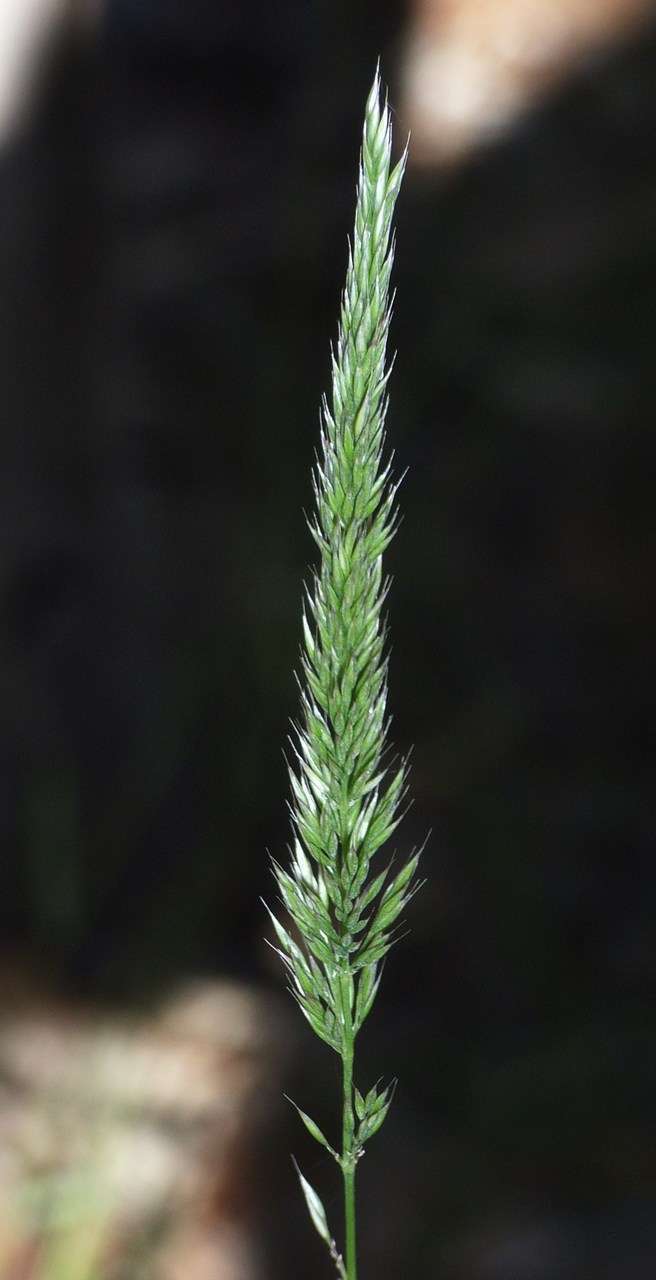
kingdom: Plantae
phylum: Tracheophyta
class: Liliopsida
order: Poales
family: Poaceae
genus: Calamagrostis
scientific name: Calamagrostis quadriseta
